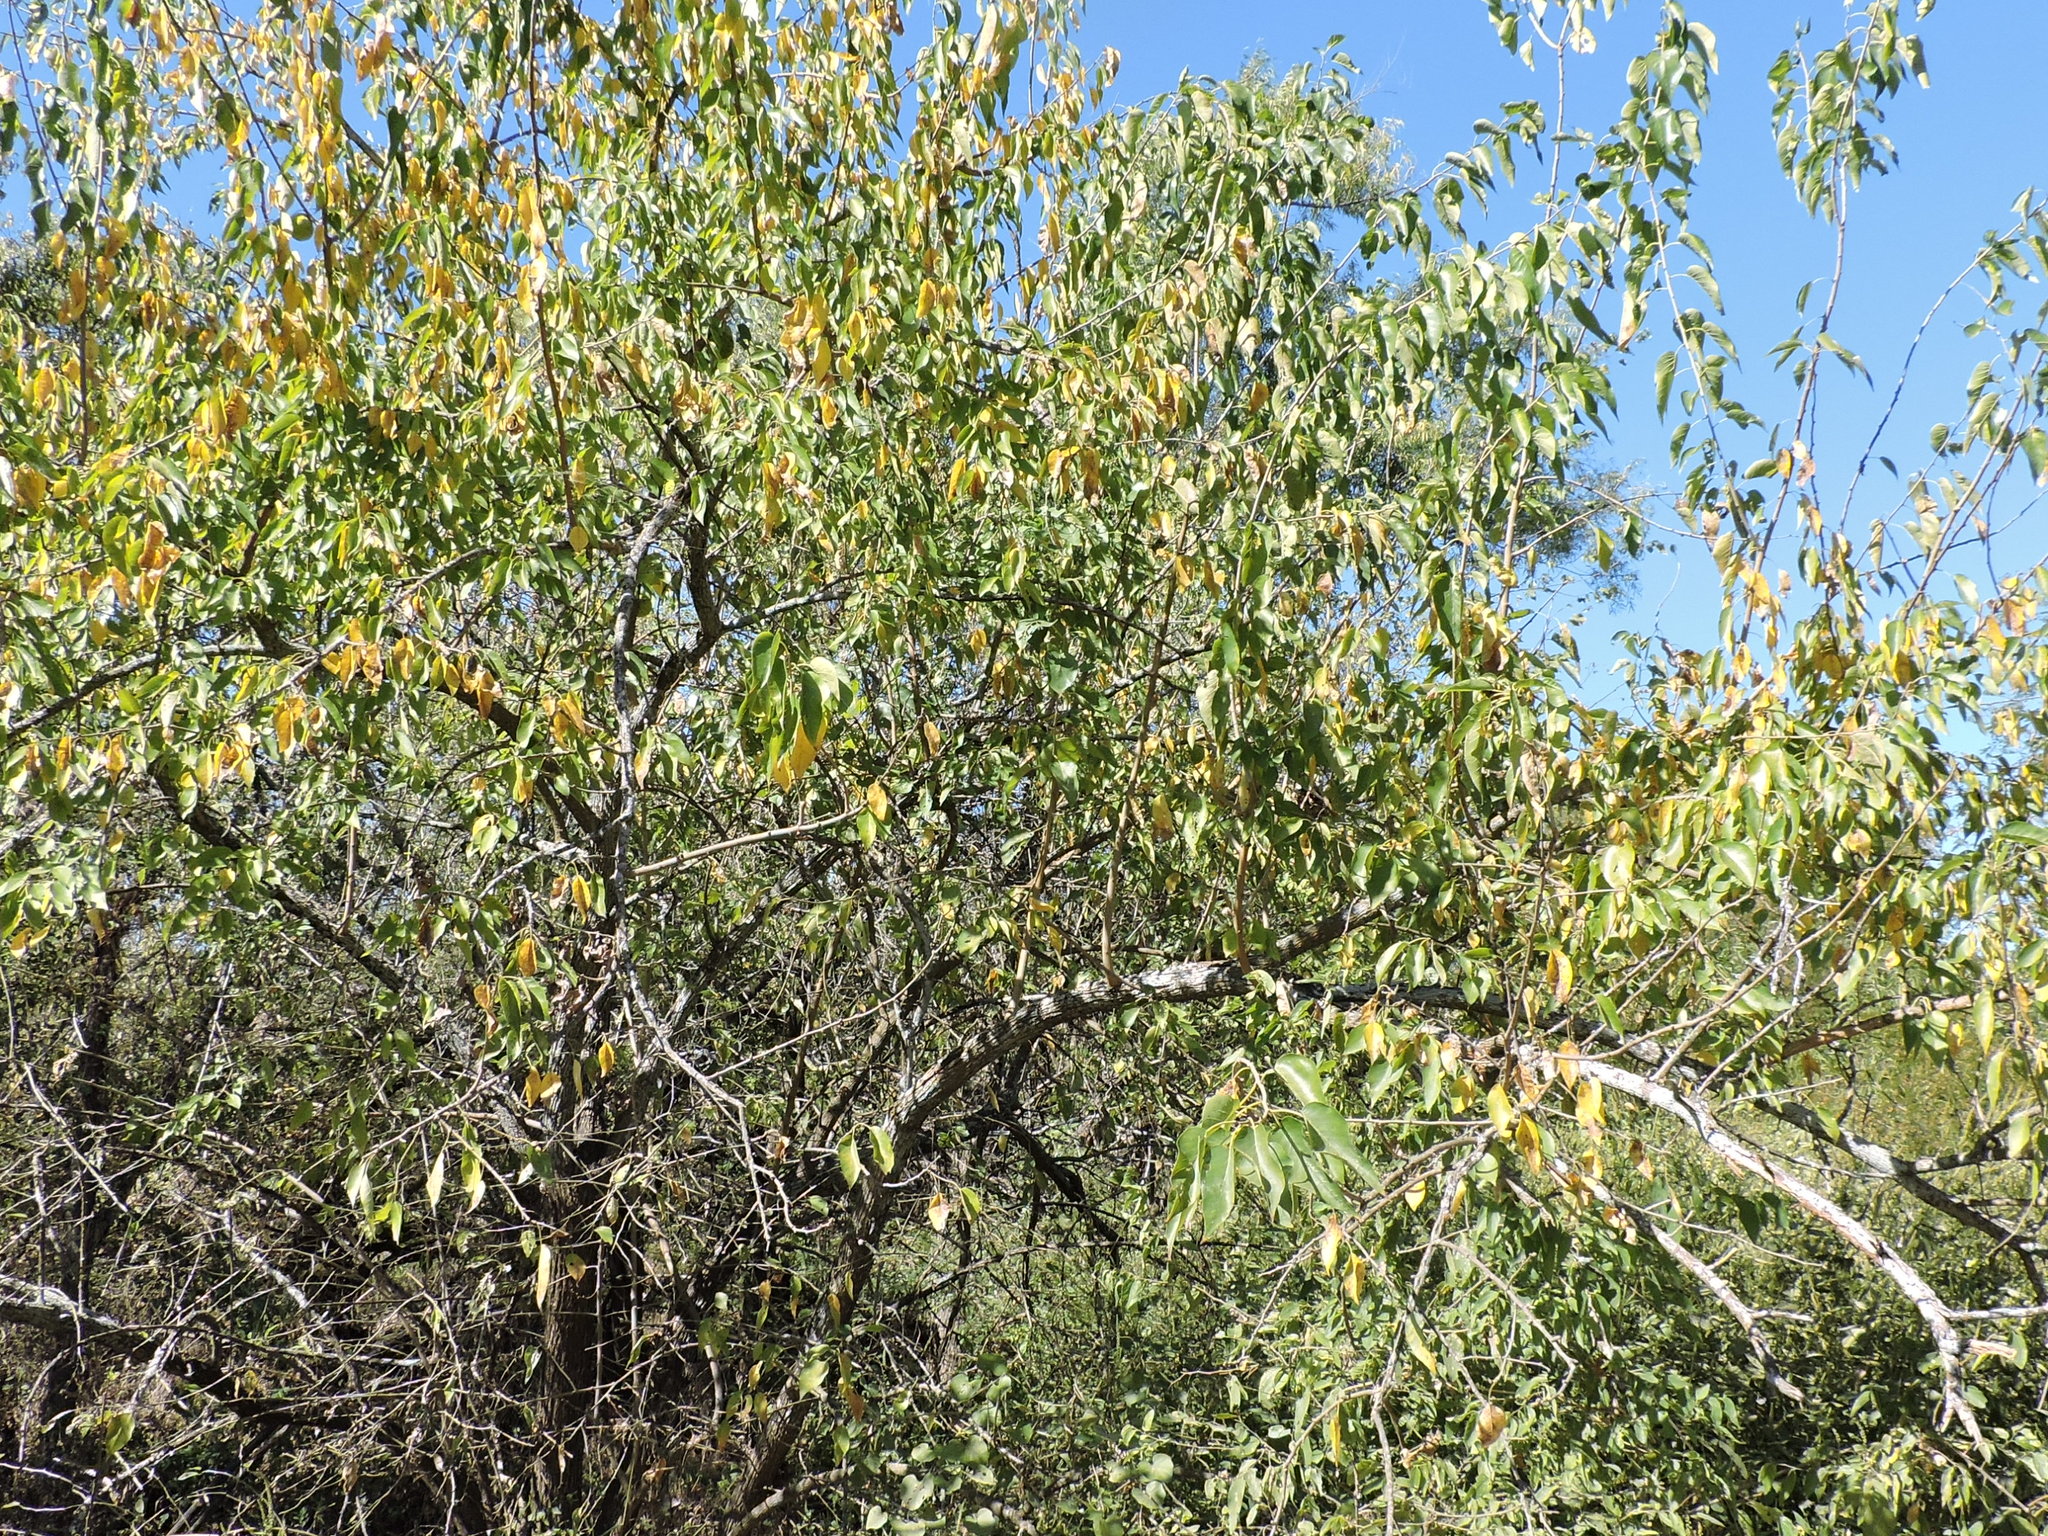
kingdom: Plantae
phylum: Tracheophyta
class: Magnoliopsida
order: Rosales
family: Moraceae
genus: Maclura
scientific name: Maclura pomifera
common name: Osage-orange
